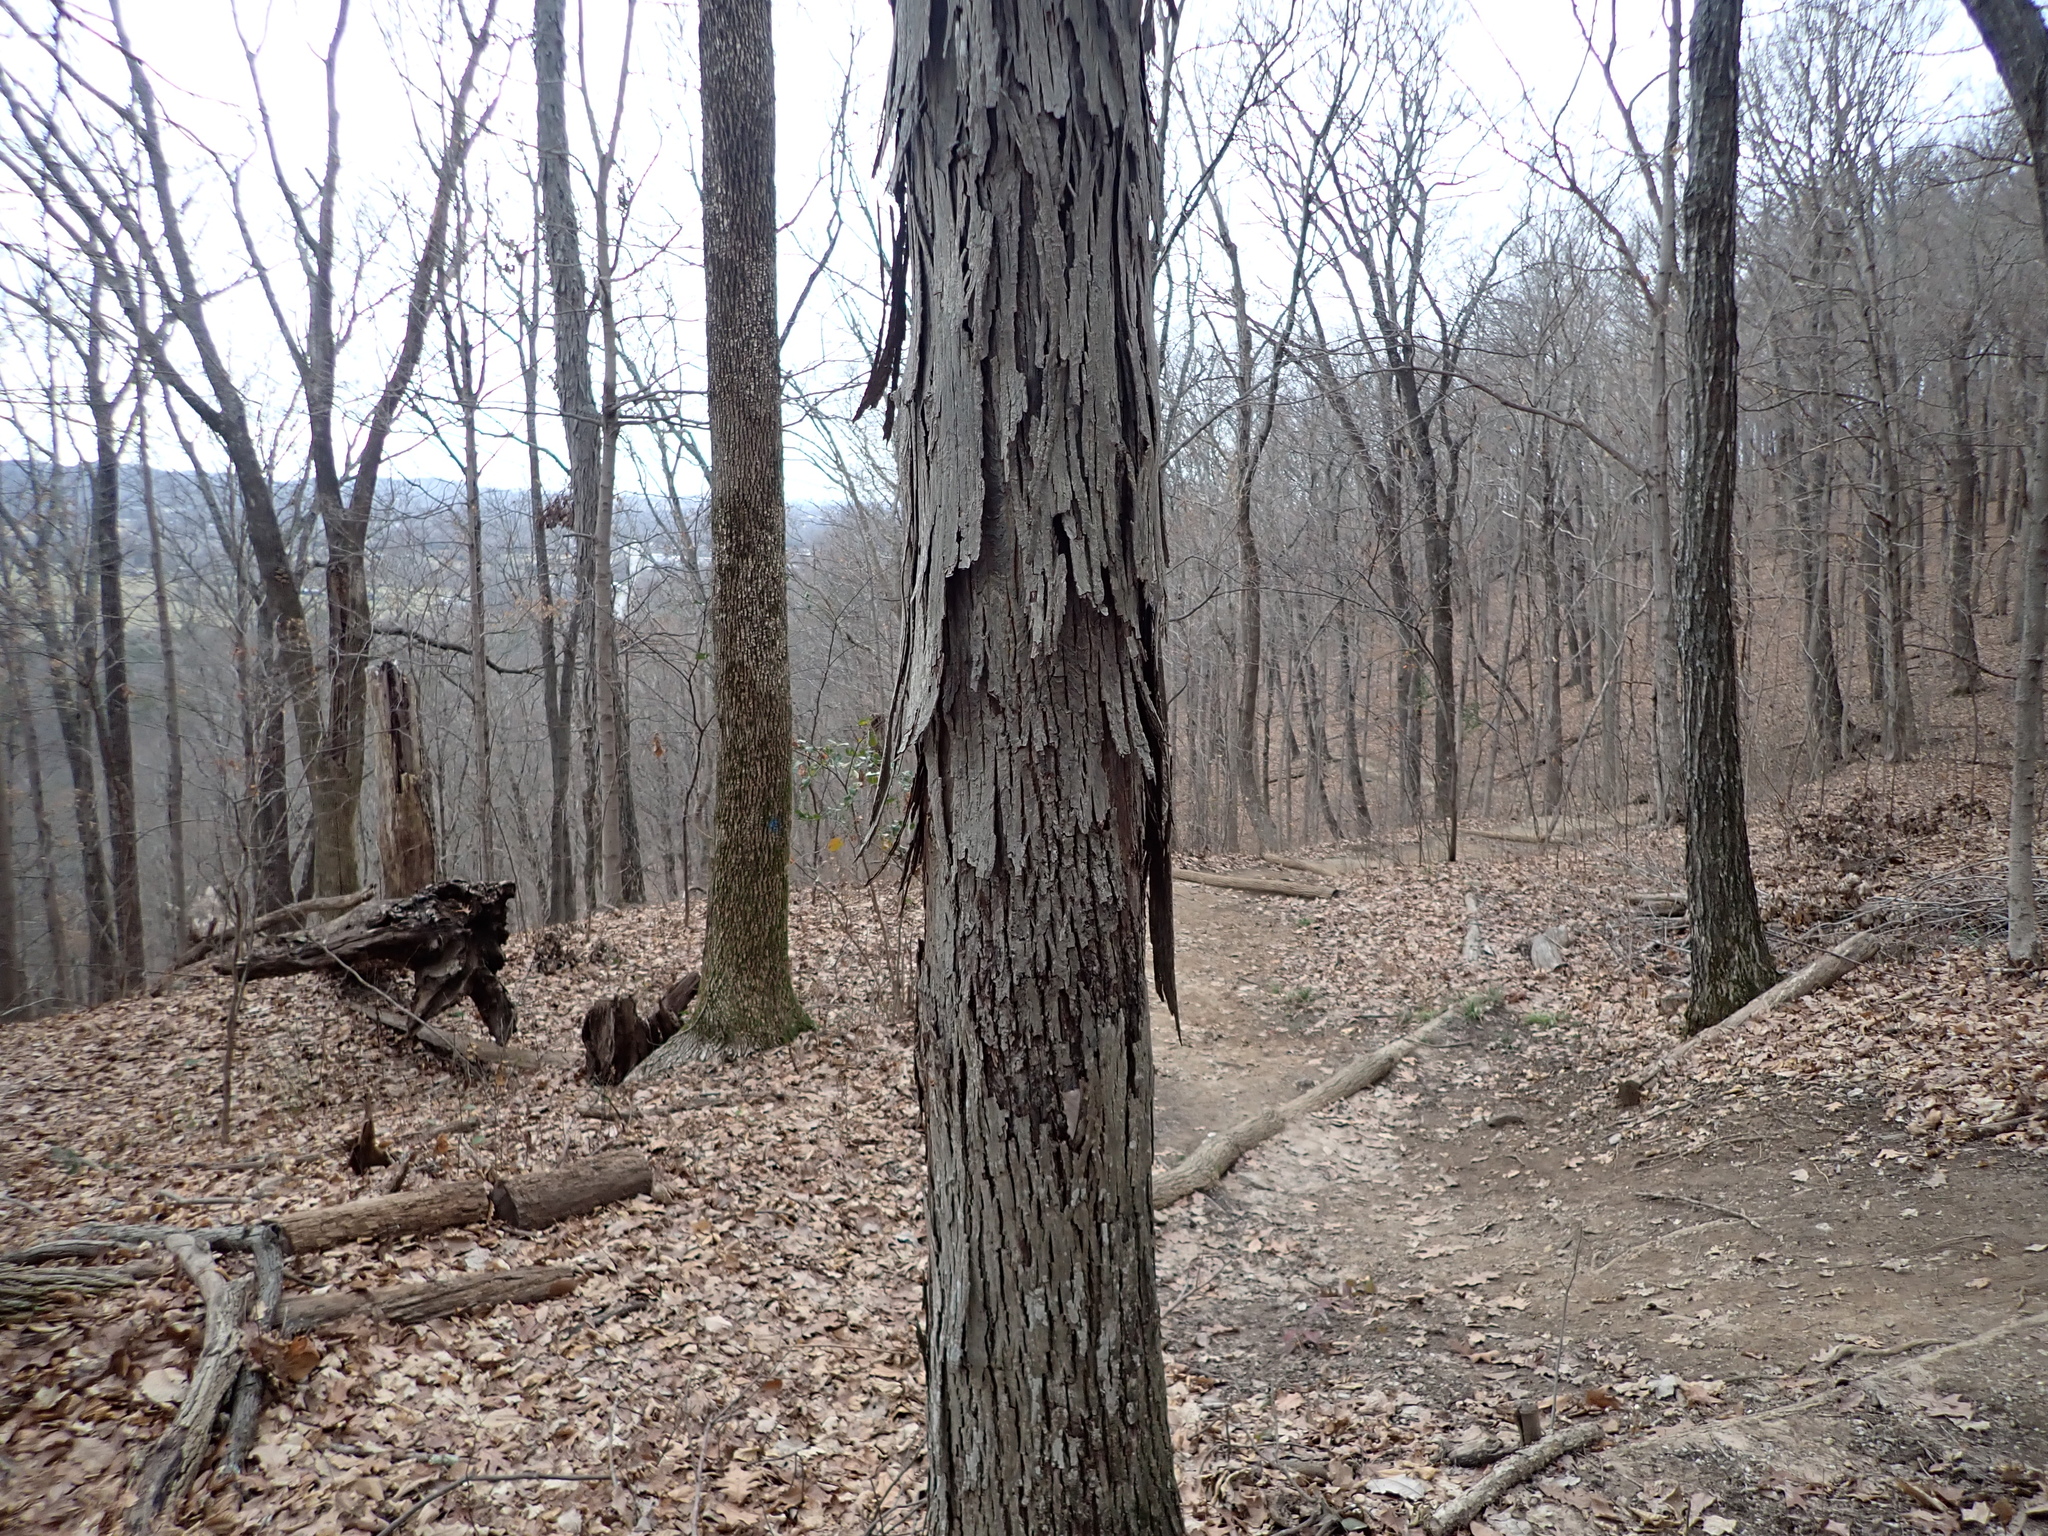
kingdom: Plantae
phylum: Tracheophyta
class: Magnoliopsida
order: Fagales
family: Juglandaceae
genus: Carya
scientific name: Carya ovata
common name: Shagbark hickory
